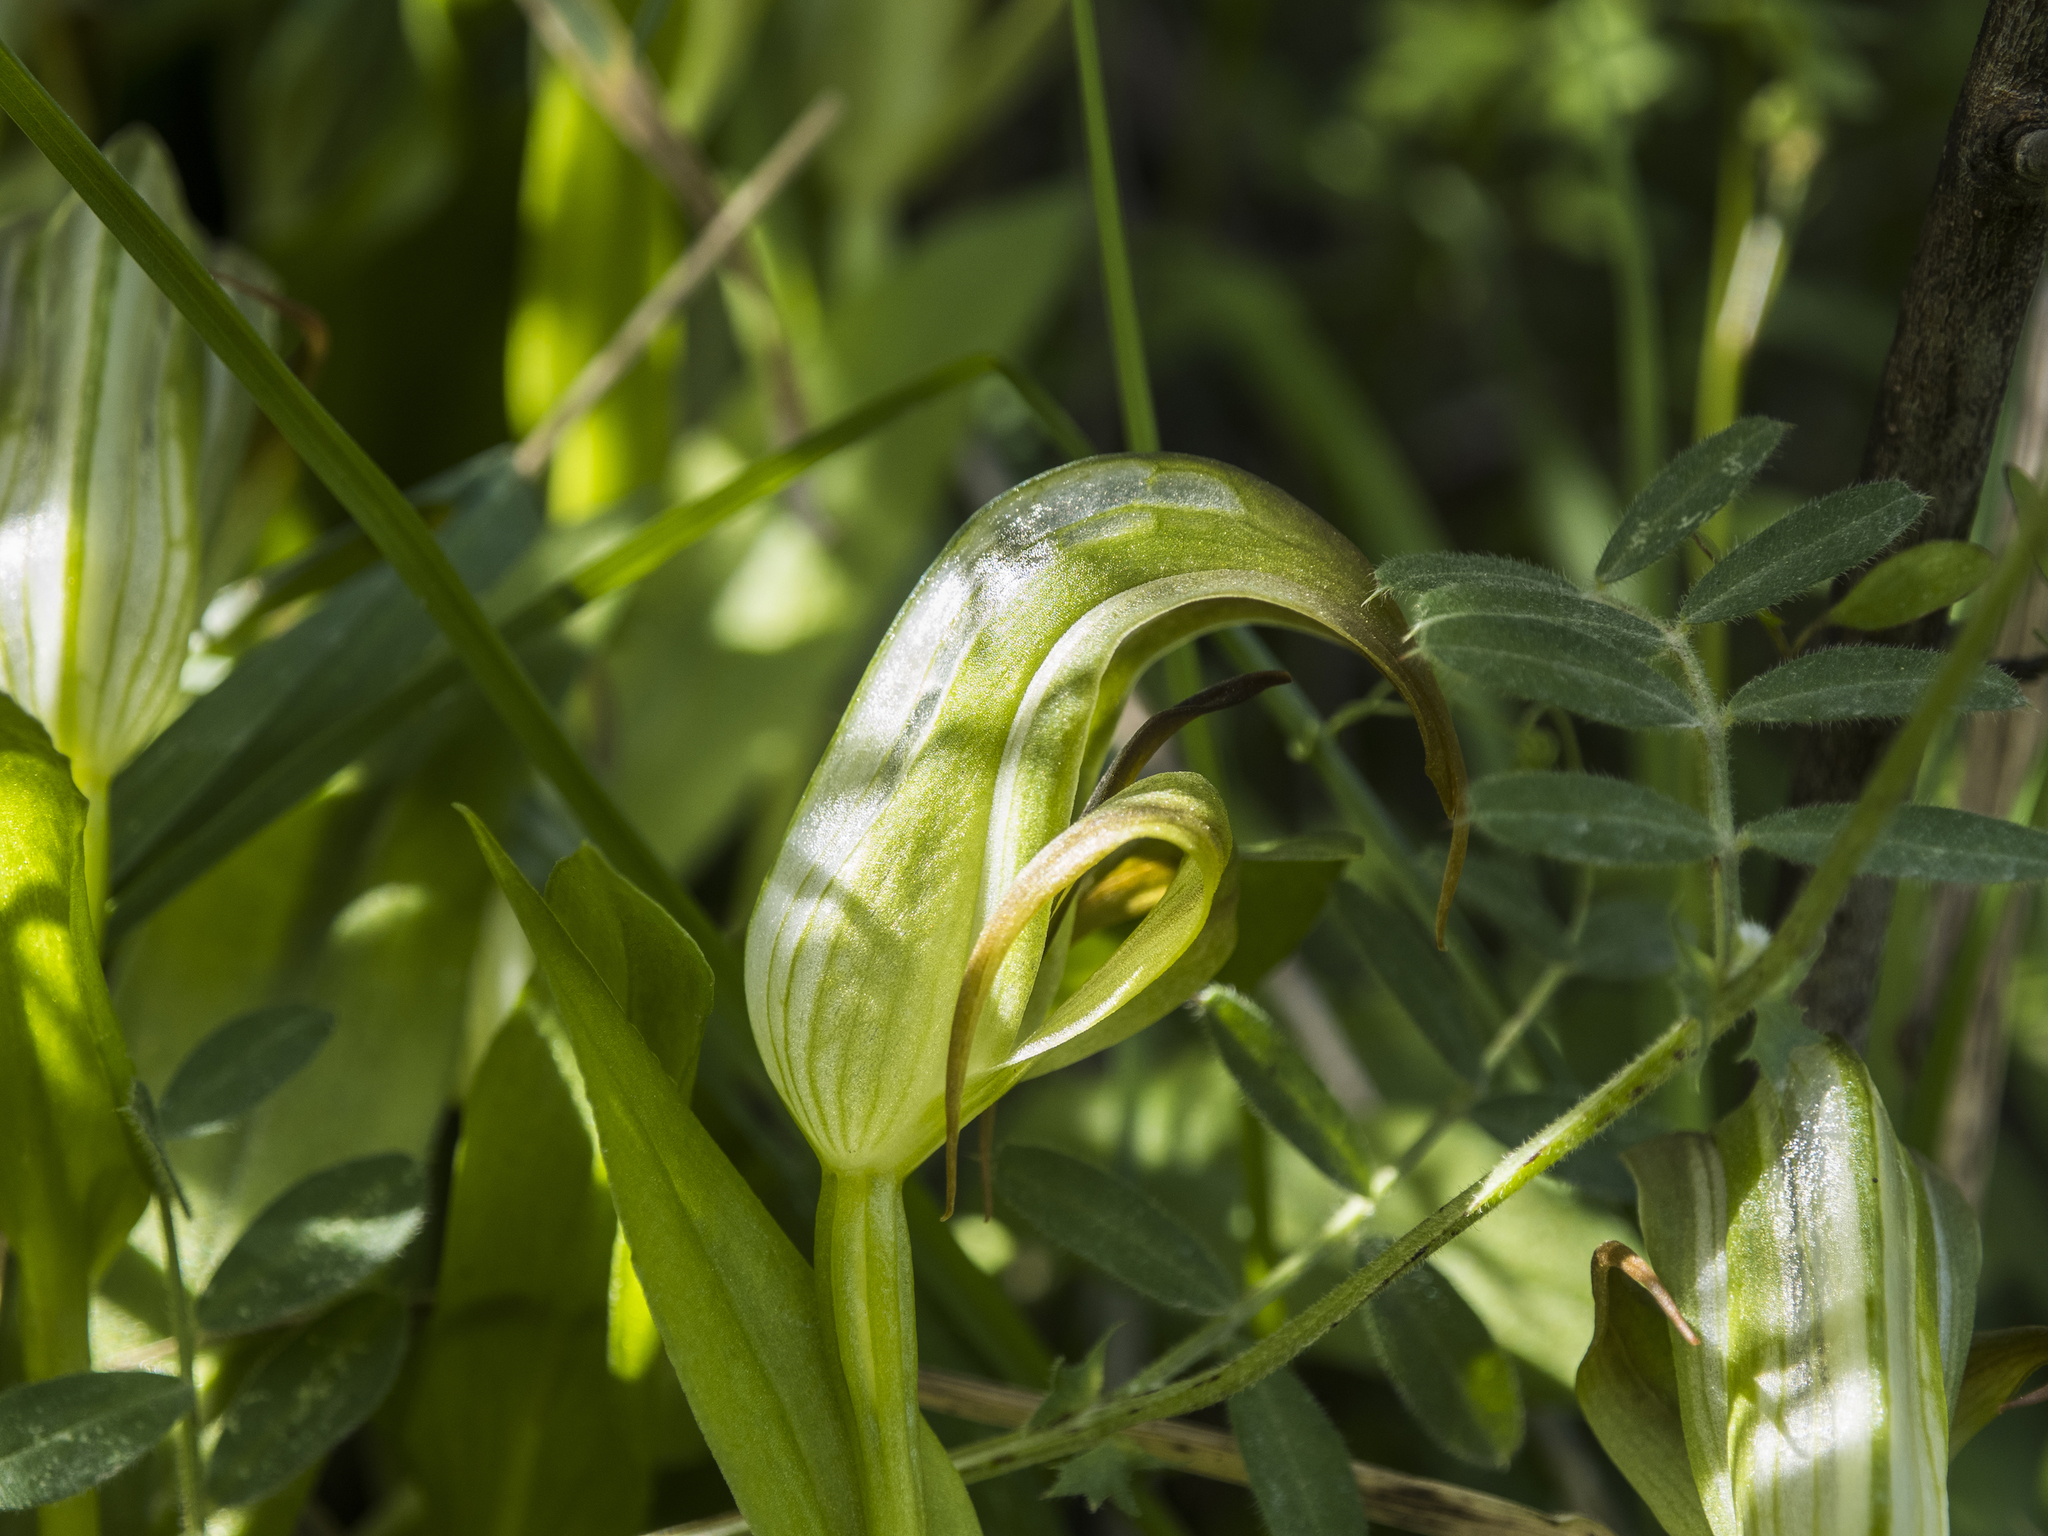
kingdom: Plantae
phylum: Tracheophyta
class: Liliopsida
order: Asparagales
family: Orchidaceae
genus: Pterostylis
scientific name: Pterostylis areolata
